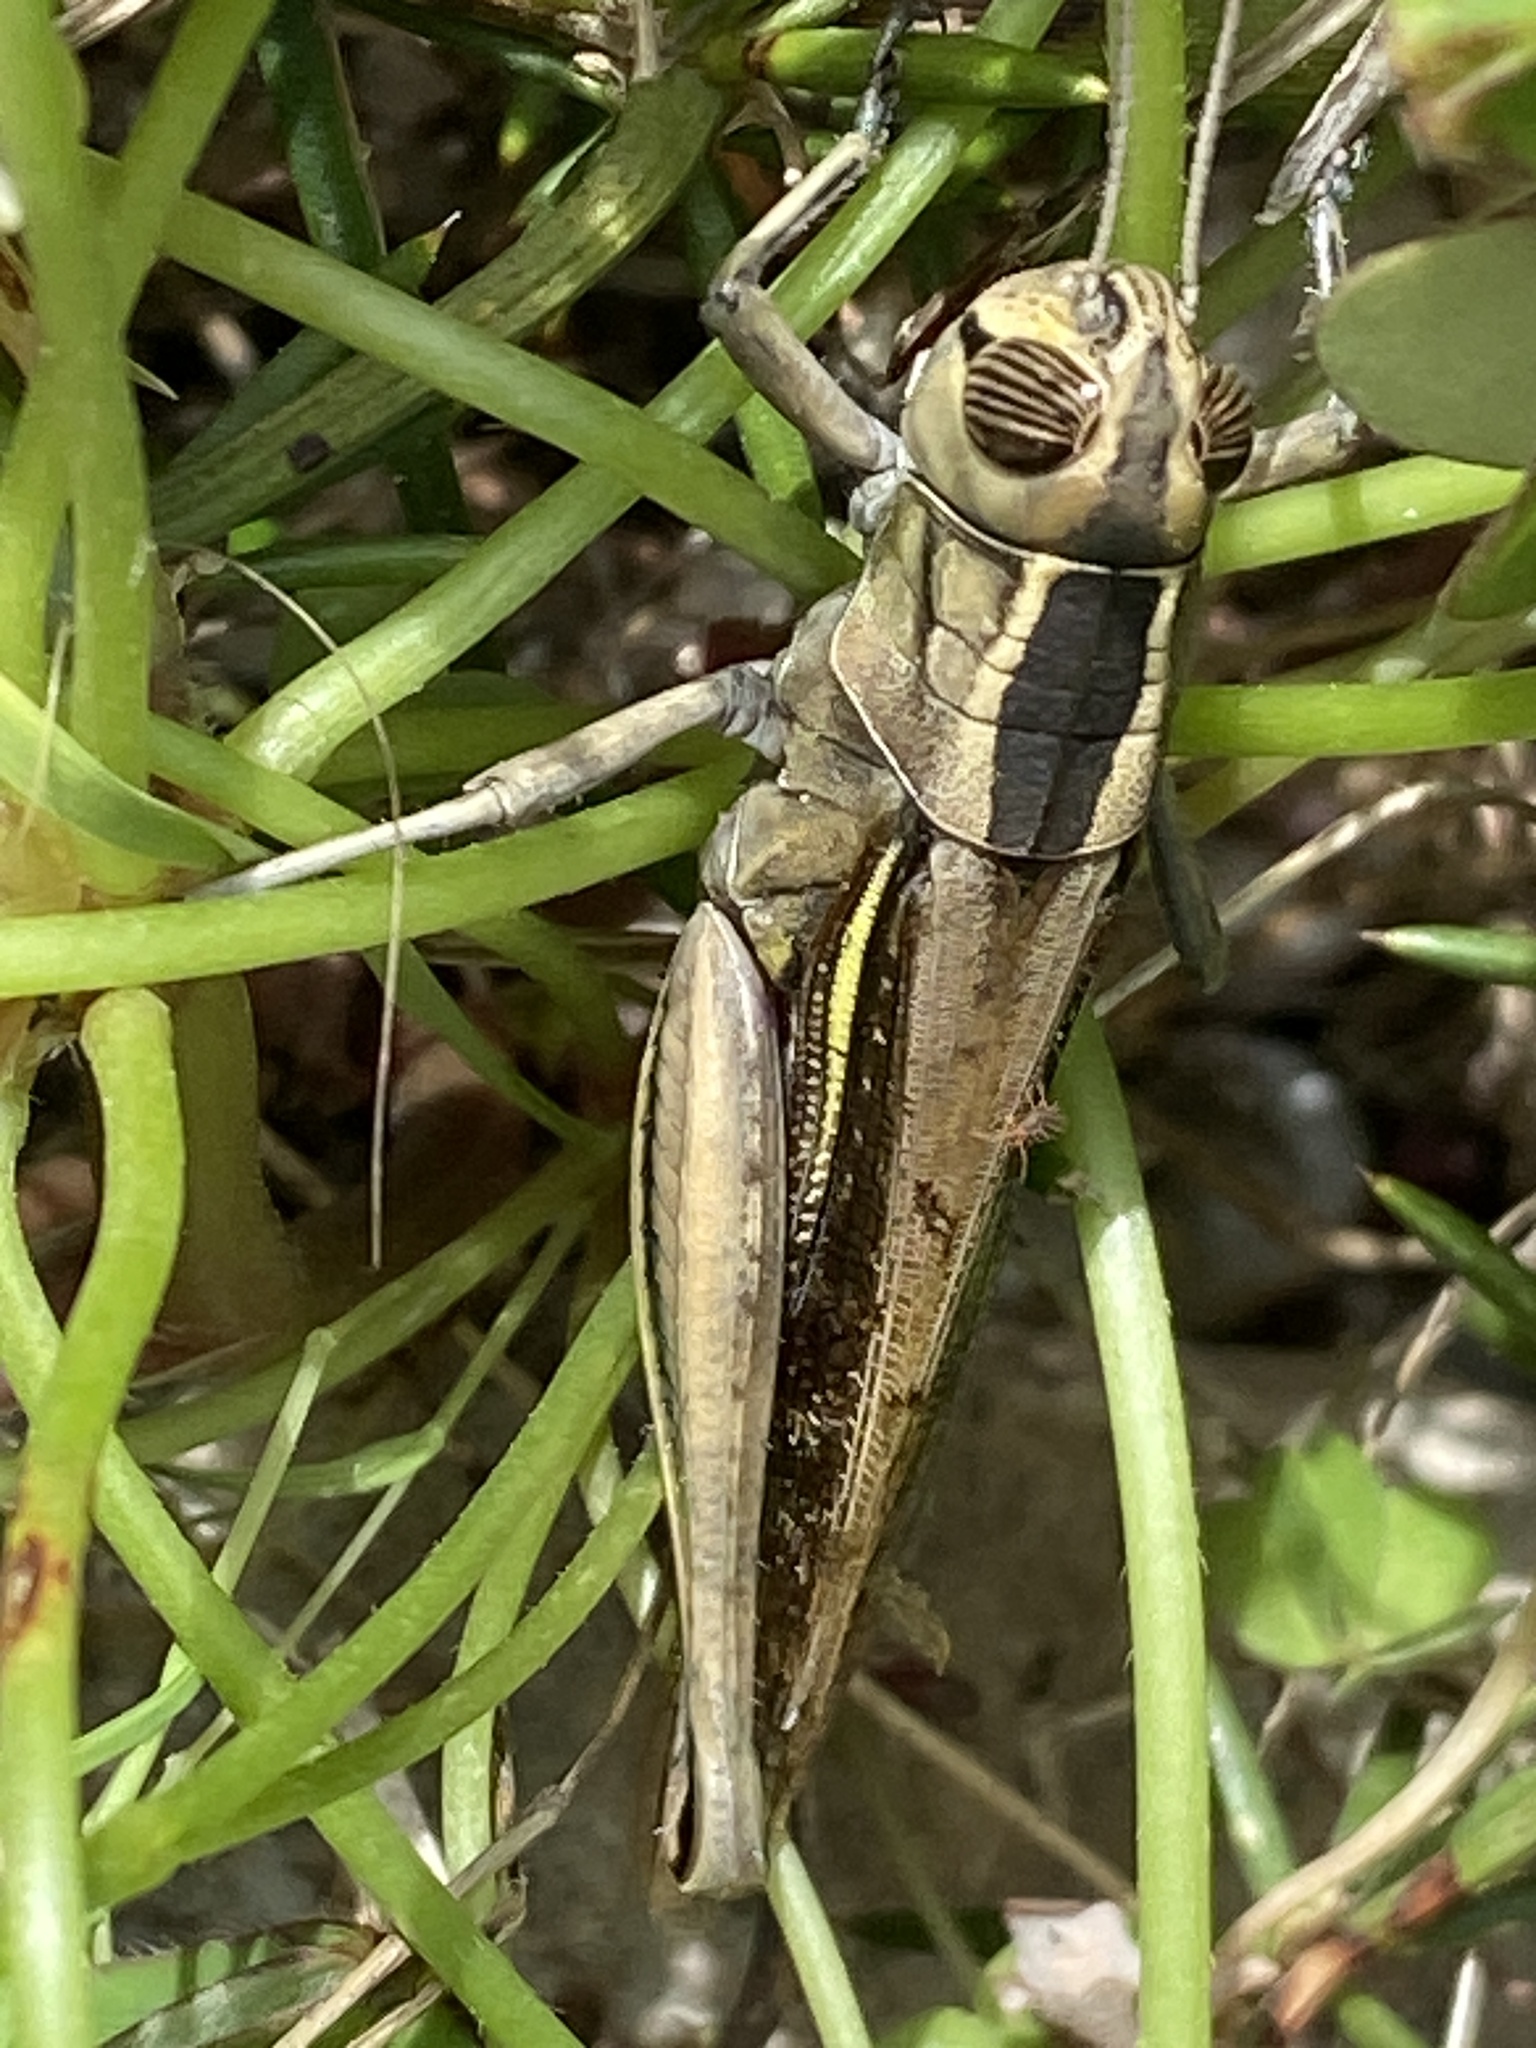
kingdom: Animalia
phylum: Arthropoda
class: Insecta
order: Orthoptera
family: Acrididae
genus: Eyprepocnemis
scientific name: Eyprepocnemis plorans
